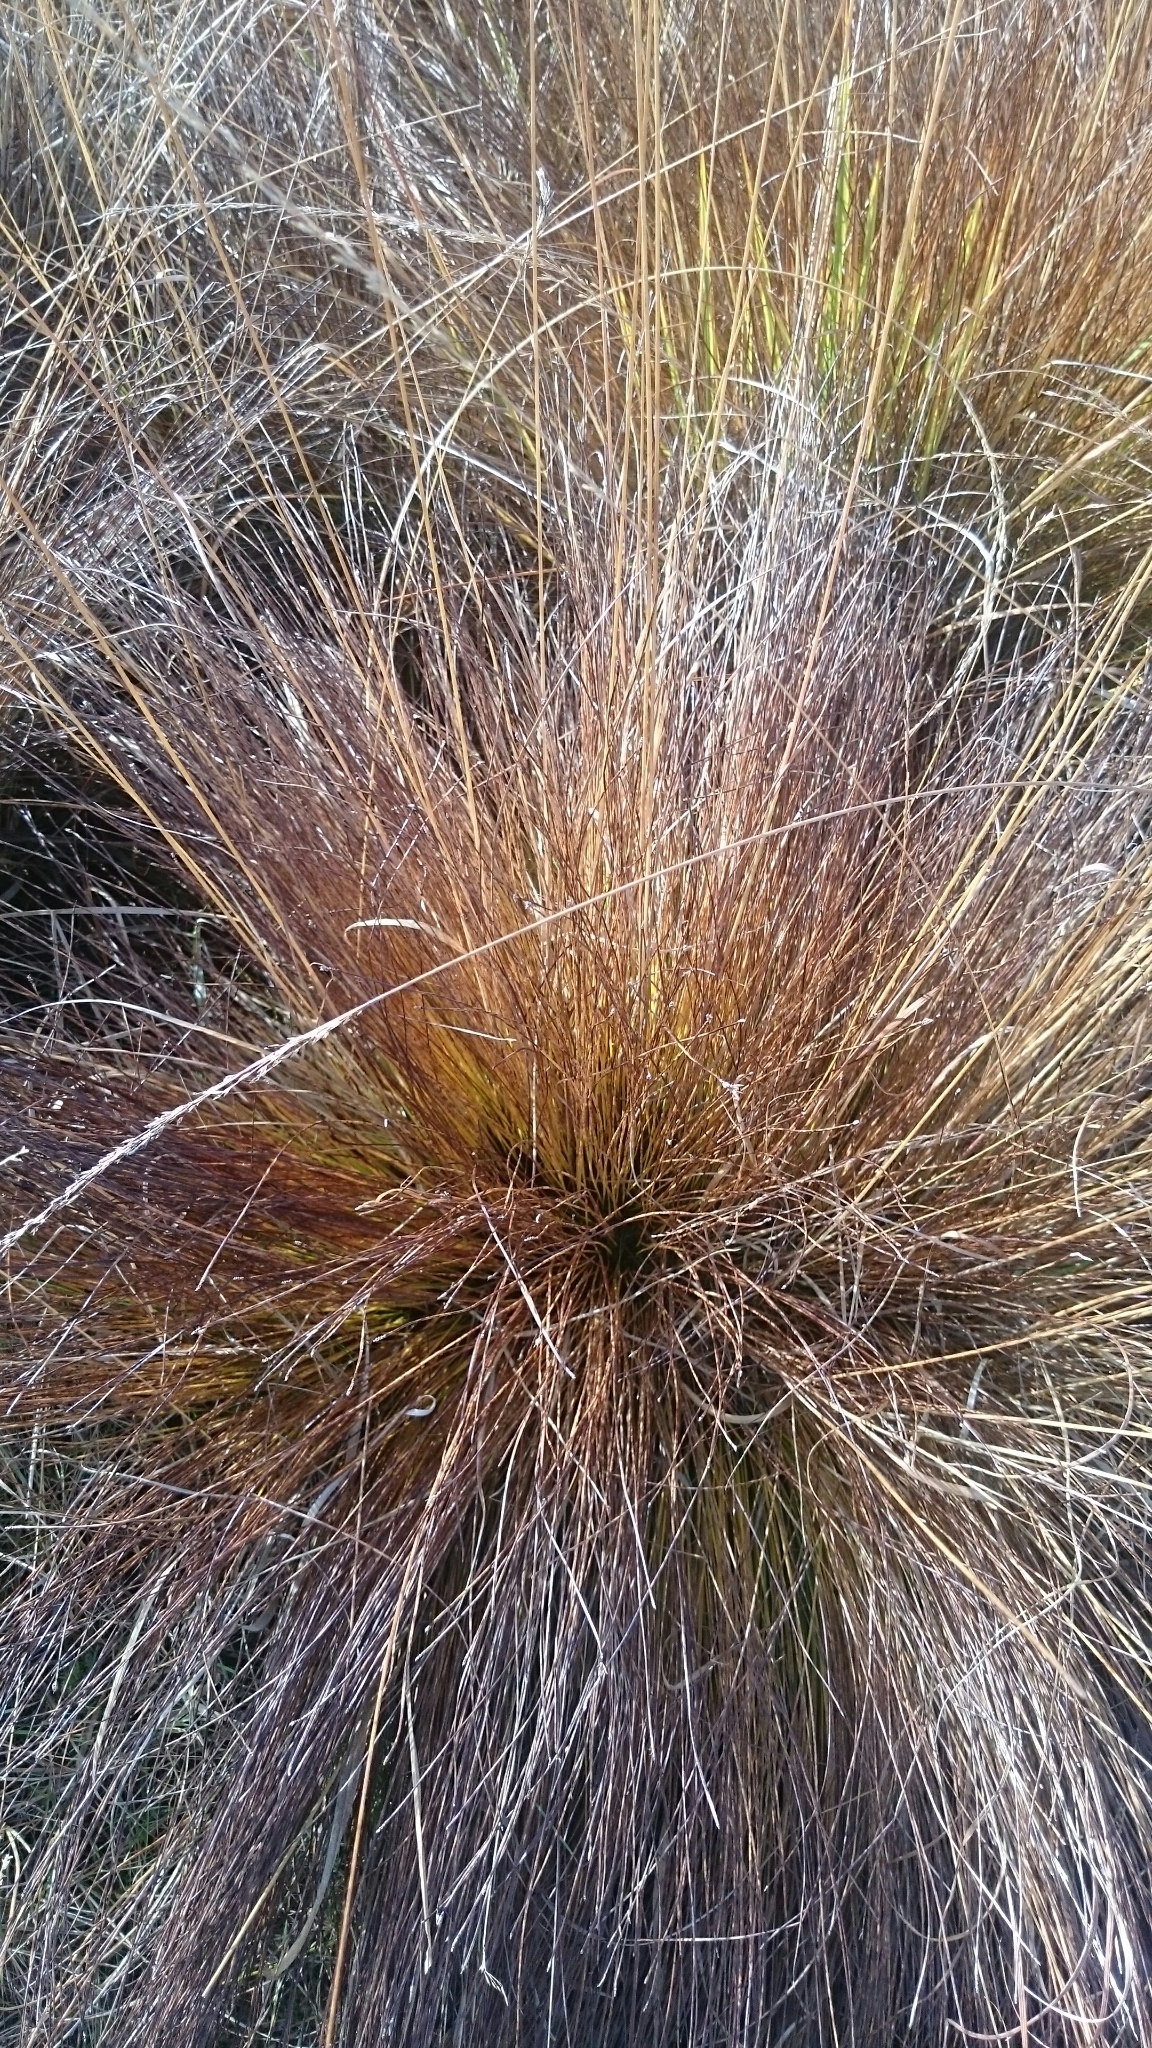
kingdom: Plantae
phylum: Tracheophyta
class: Liliopsida
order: Poales
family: Cyperaceae
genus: Trichophorum
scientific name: Trichophorum cespitosum
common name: Cespitose bulrush
